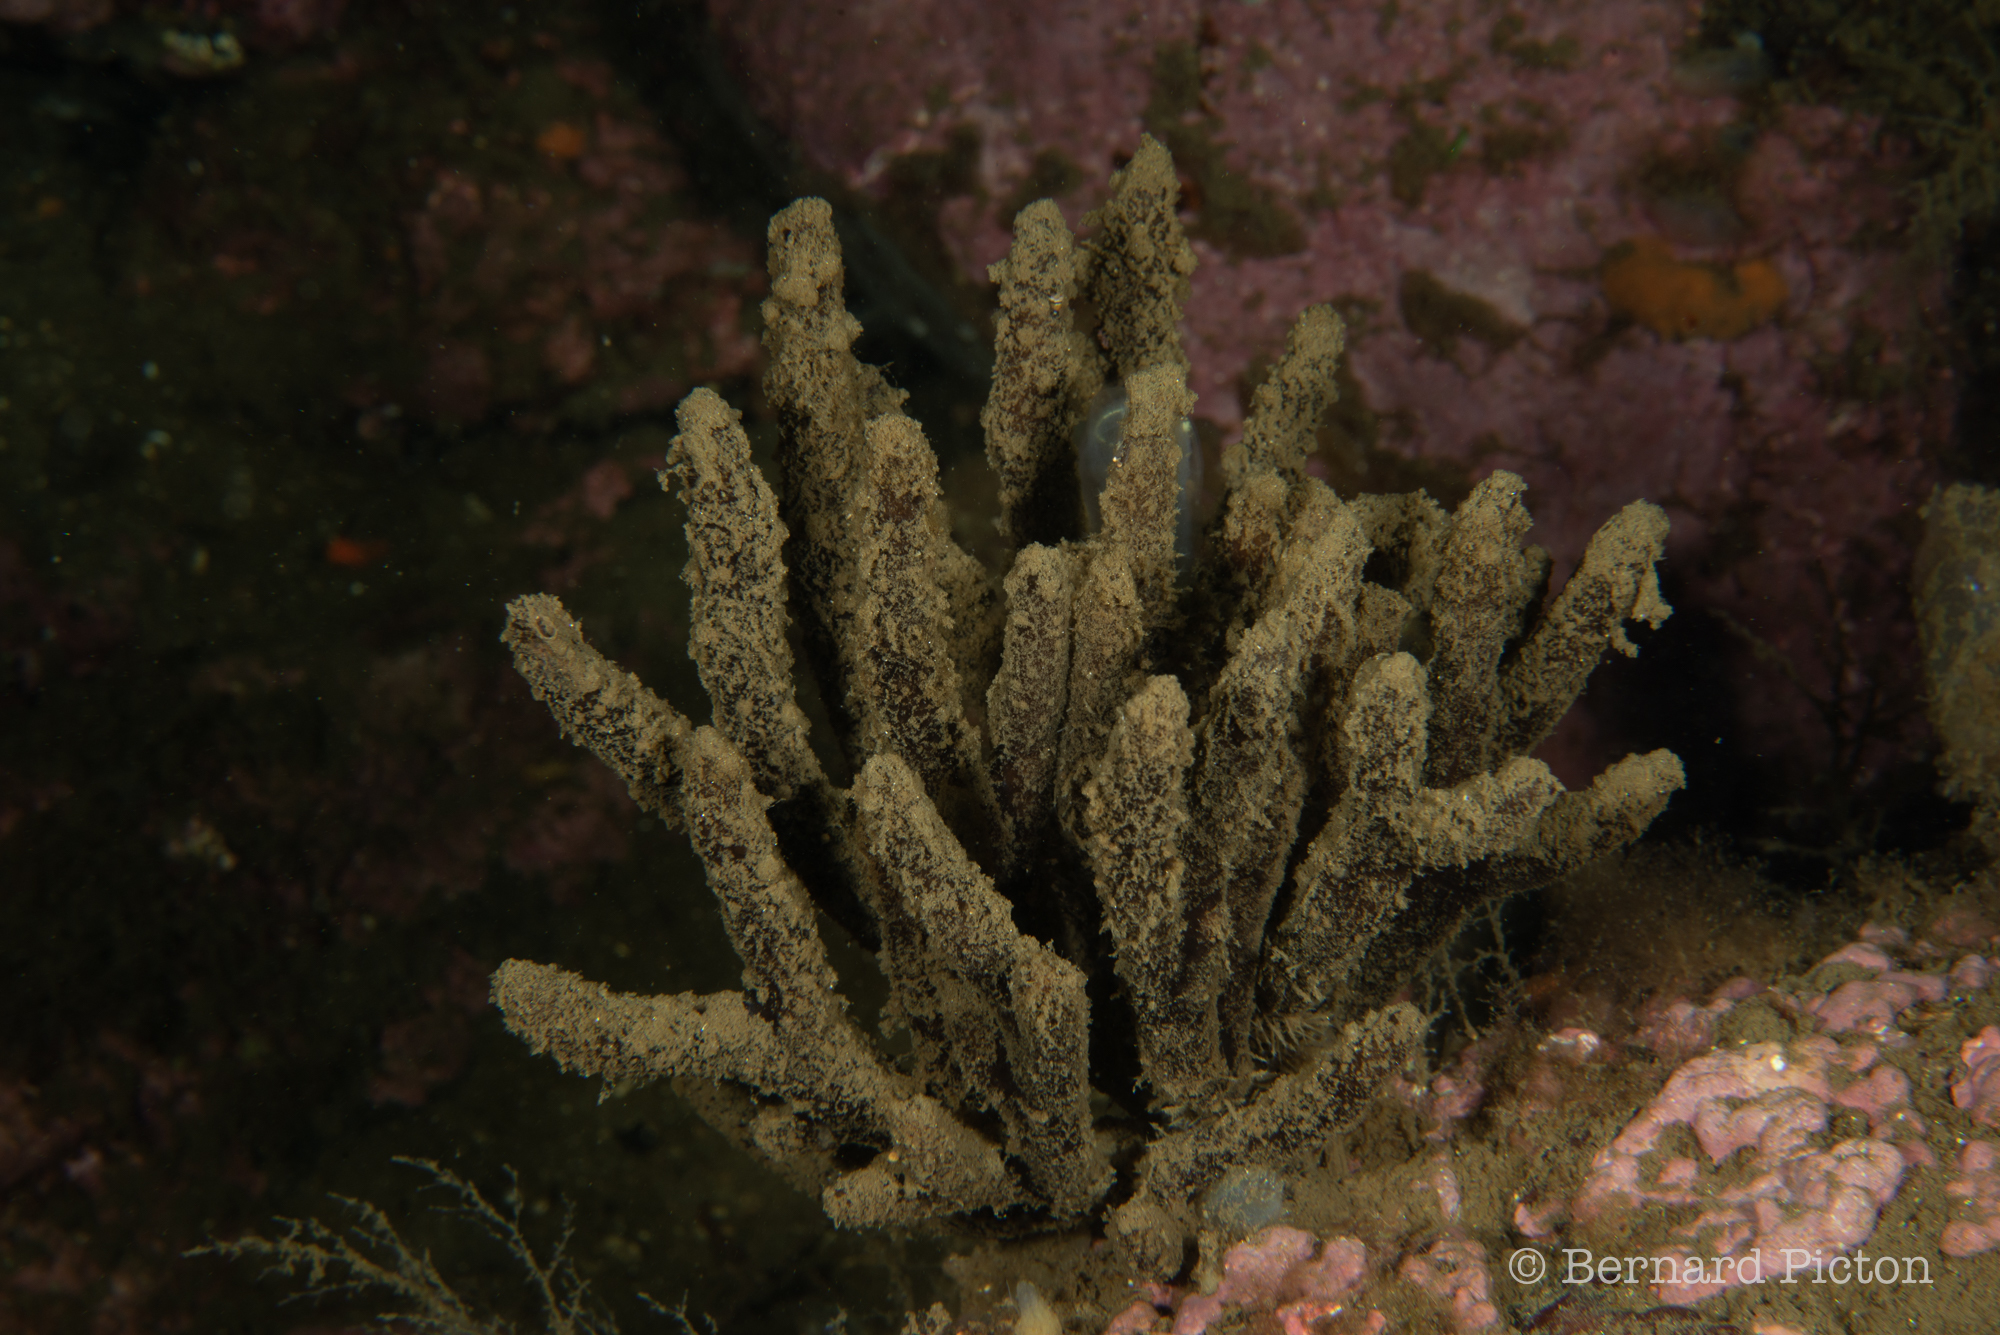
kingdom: Animalia
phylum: Porifera
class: Demospongiae
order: Axinellida
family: Raspailiidae
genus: Raspailia
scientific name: Raspailia ramosa
